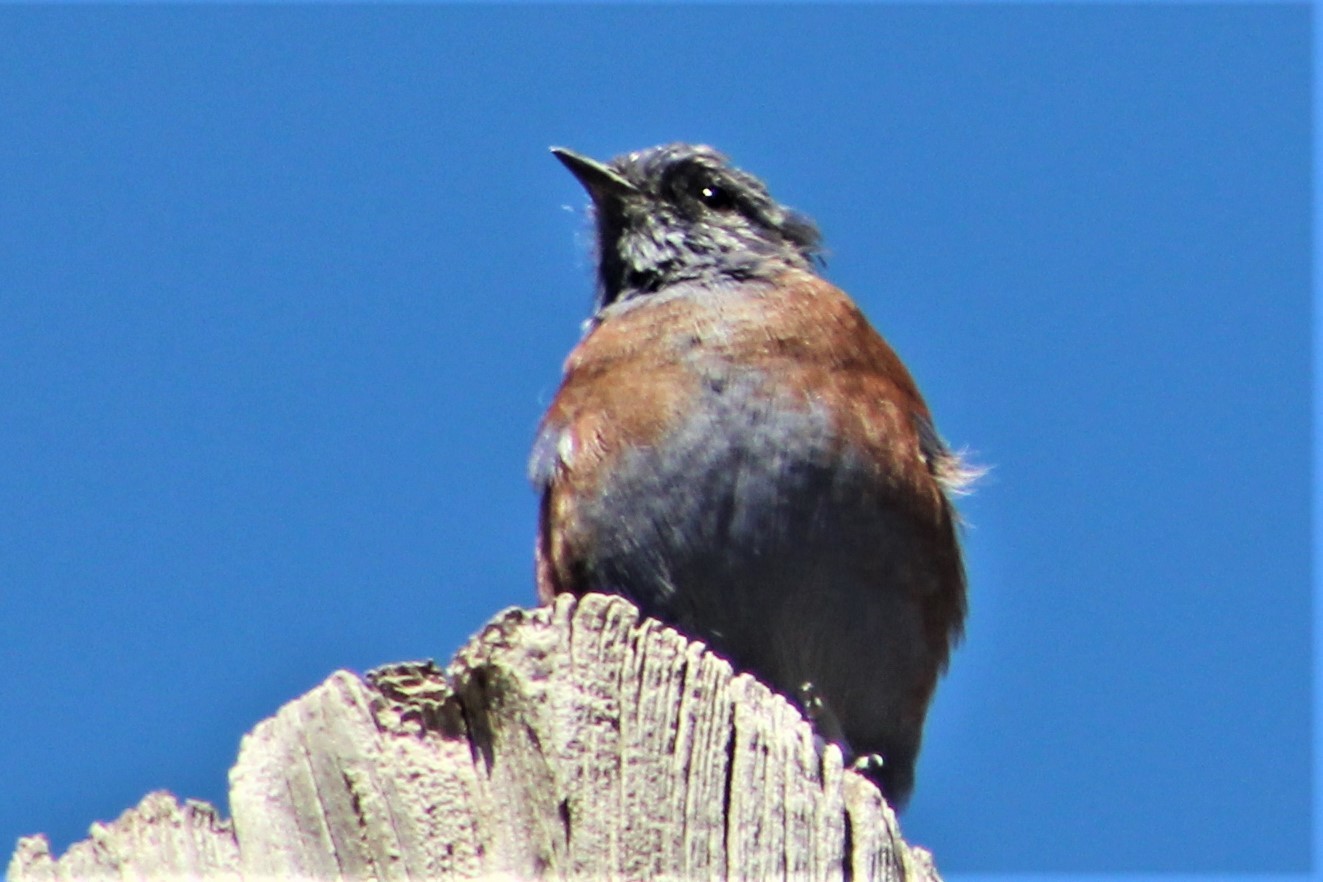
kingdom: Animalia
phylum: Chordata
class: Aves
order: Passeriformes
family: Turdidae
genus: Sialia
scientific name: Sialia mexicana
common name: Western bluebird
